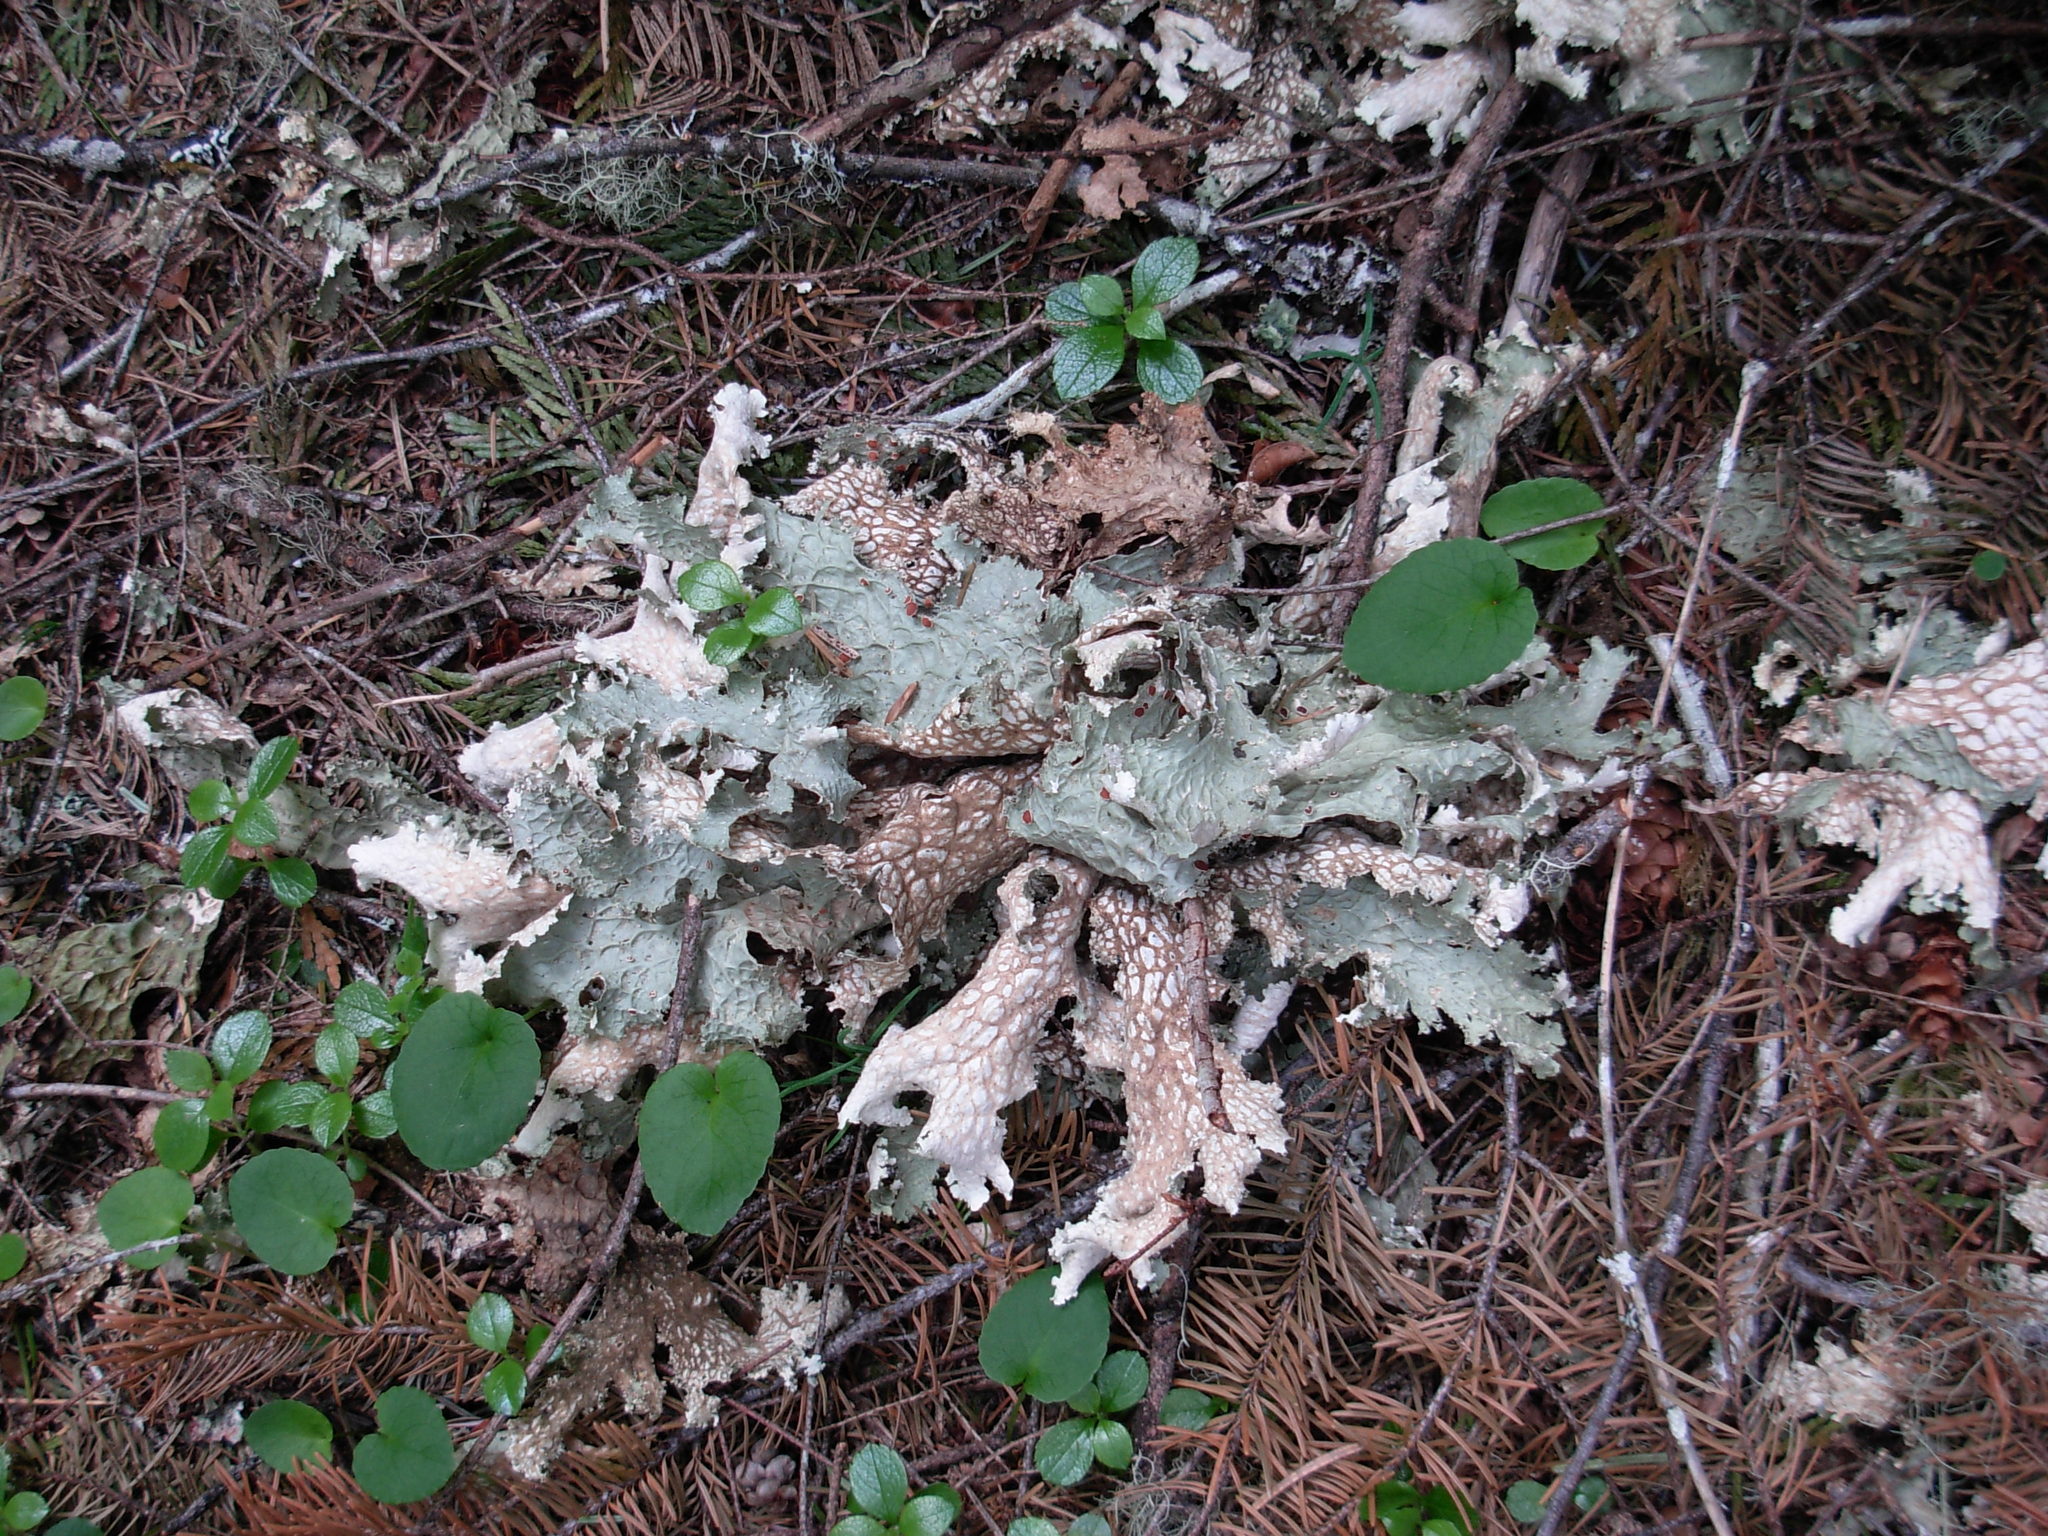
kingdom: Fungi
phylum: Ascomycota
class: Lecanoromycetes
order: Peltigerales
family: Lobariaceae
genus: Lobaria
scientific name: Lobaria oregana
